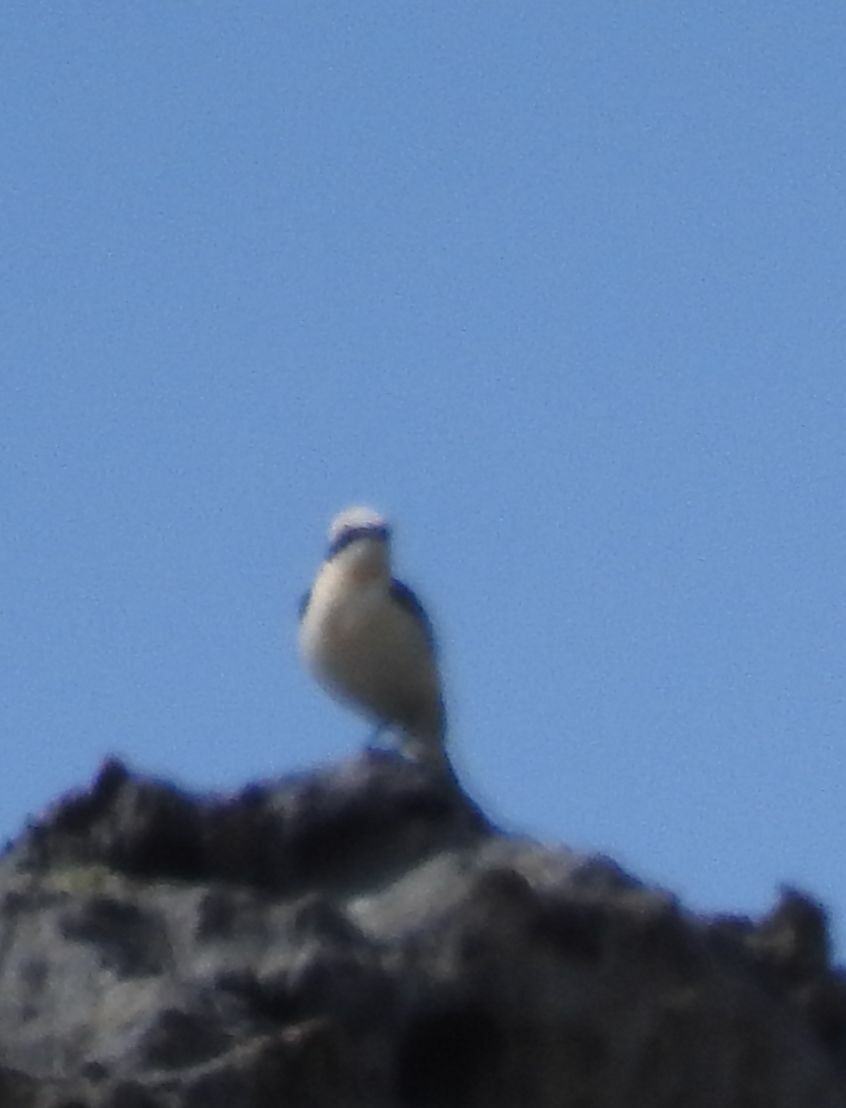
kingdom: Animalia
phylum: Chordata
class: Aves
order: Passeriformes
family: Muscicapidae
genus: Oenanthe
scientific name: Oenanthe hispanica
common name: Black-eared wheatear
